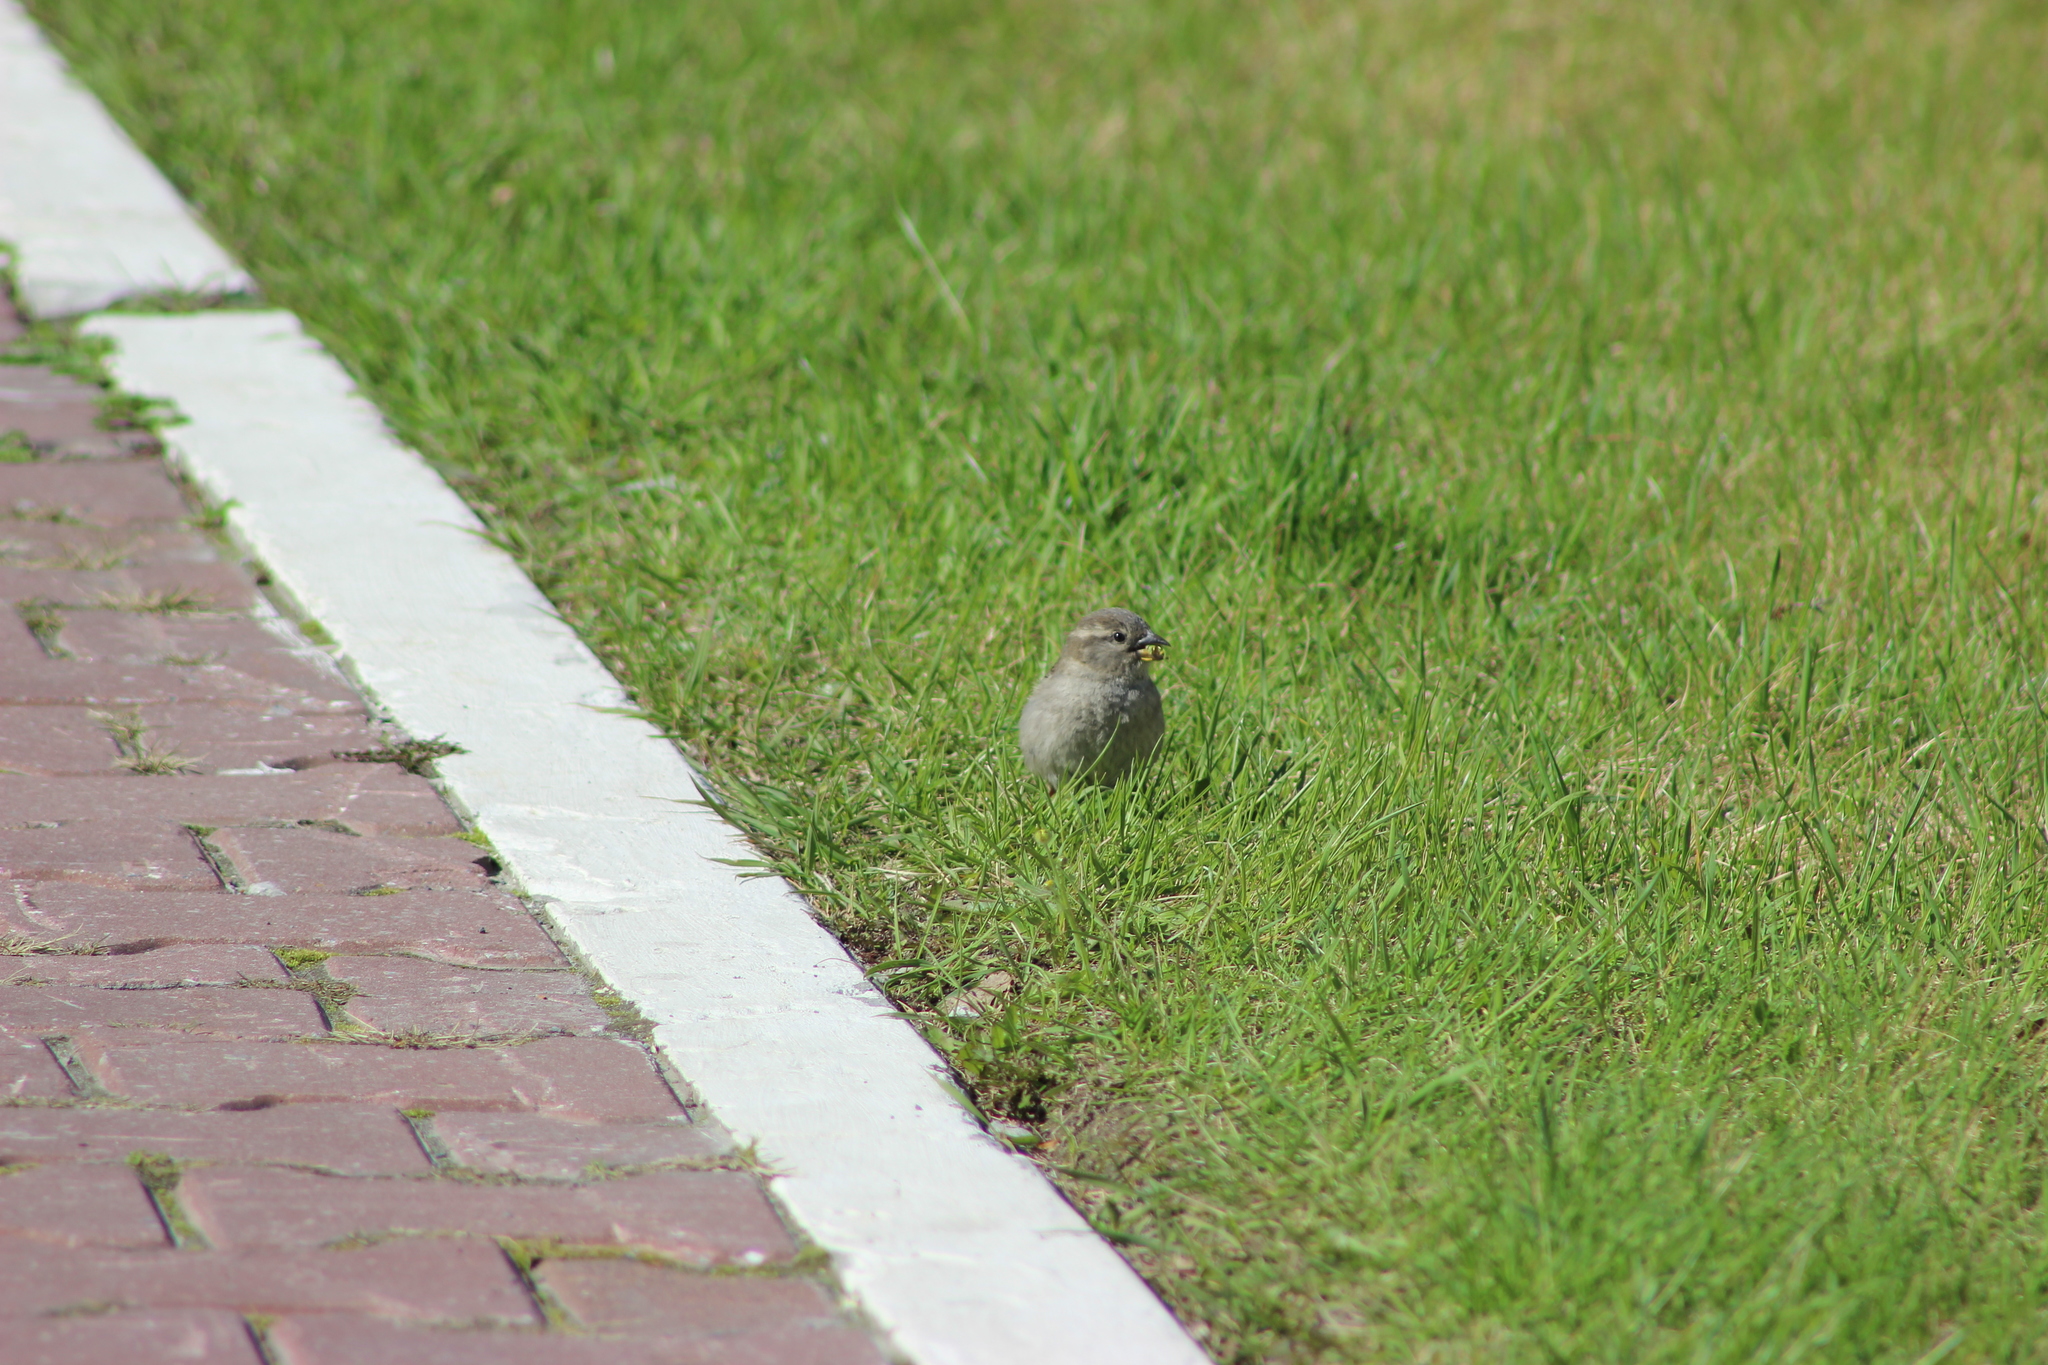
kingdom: Animalia
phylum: Chordata
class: Aves
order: Passeriformes
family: Passeridae
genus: Passer
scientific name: Passer domesticus
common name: House sparrow
